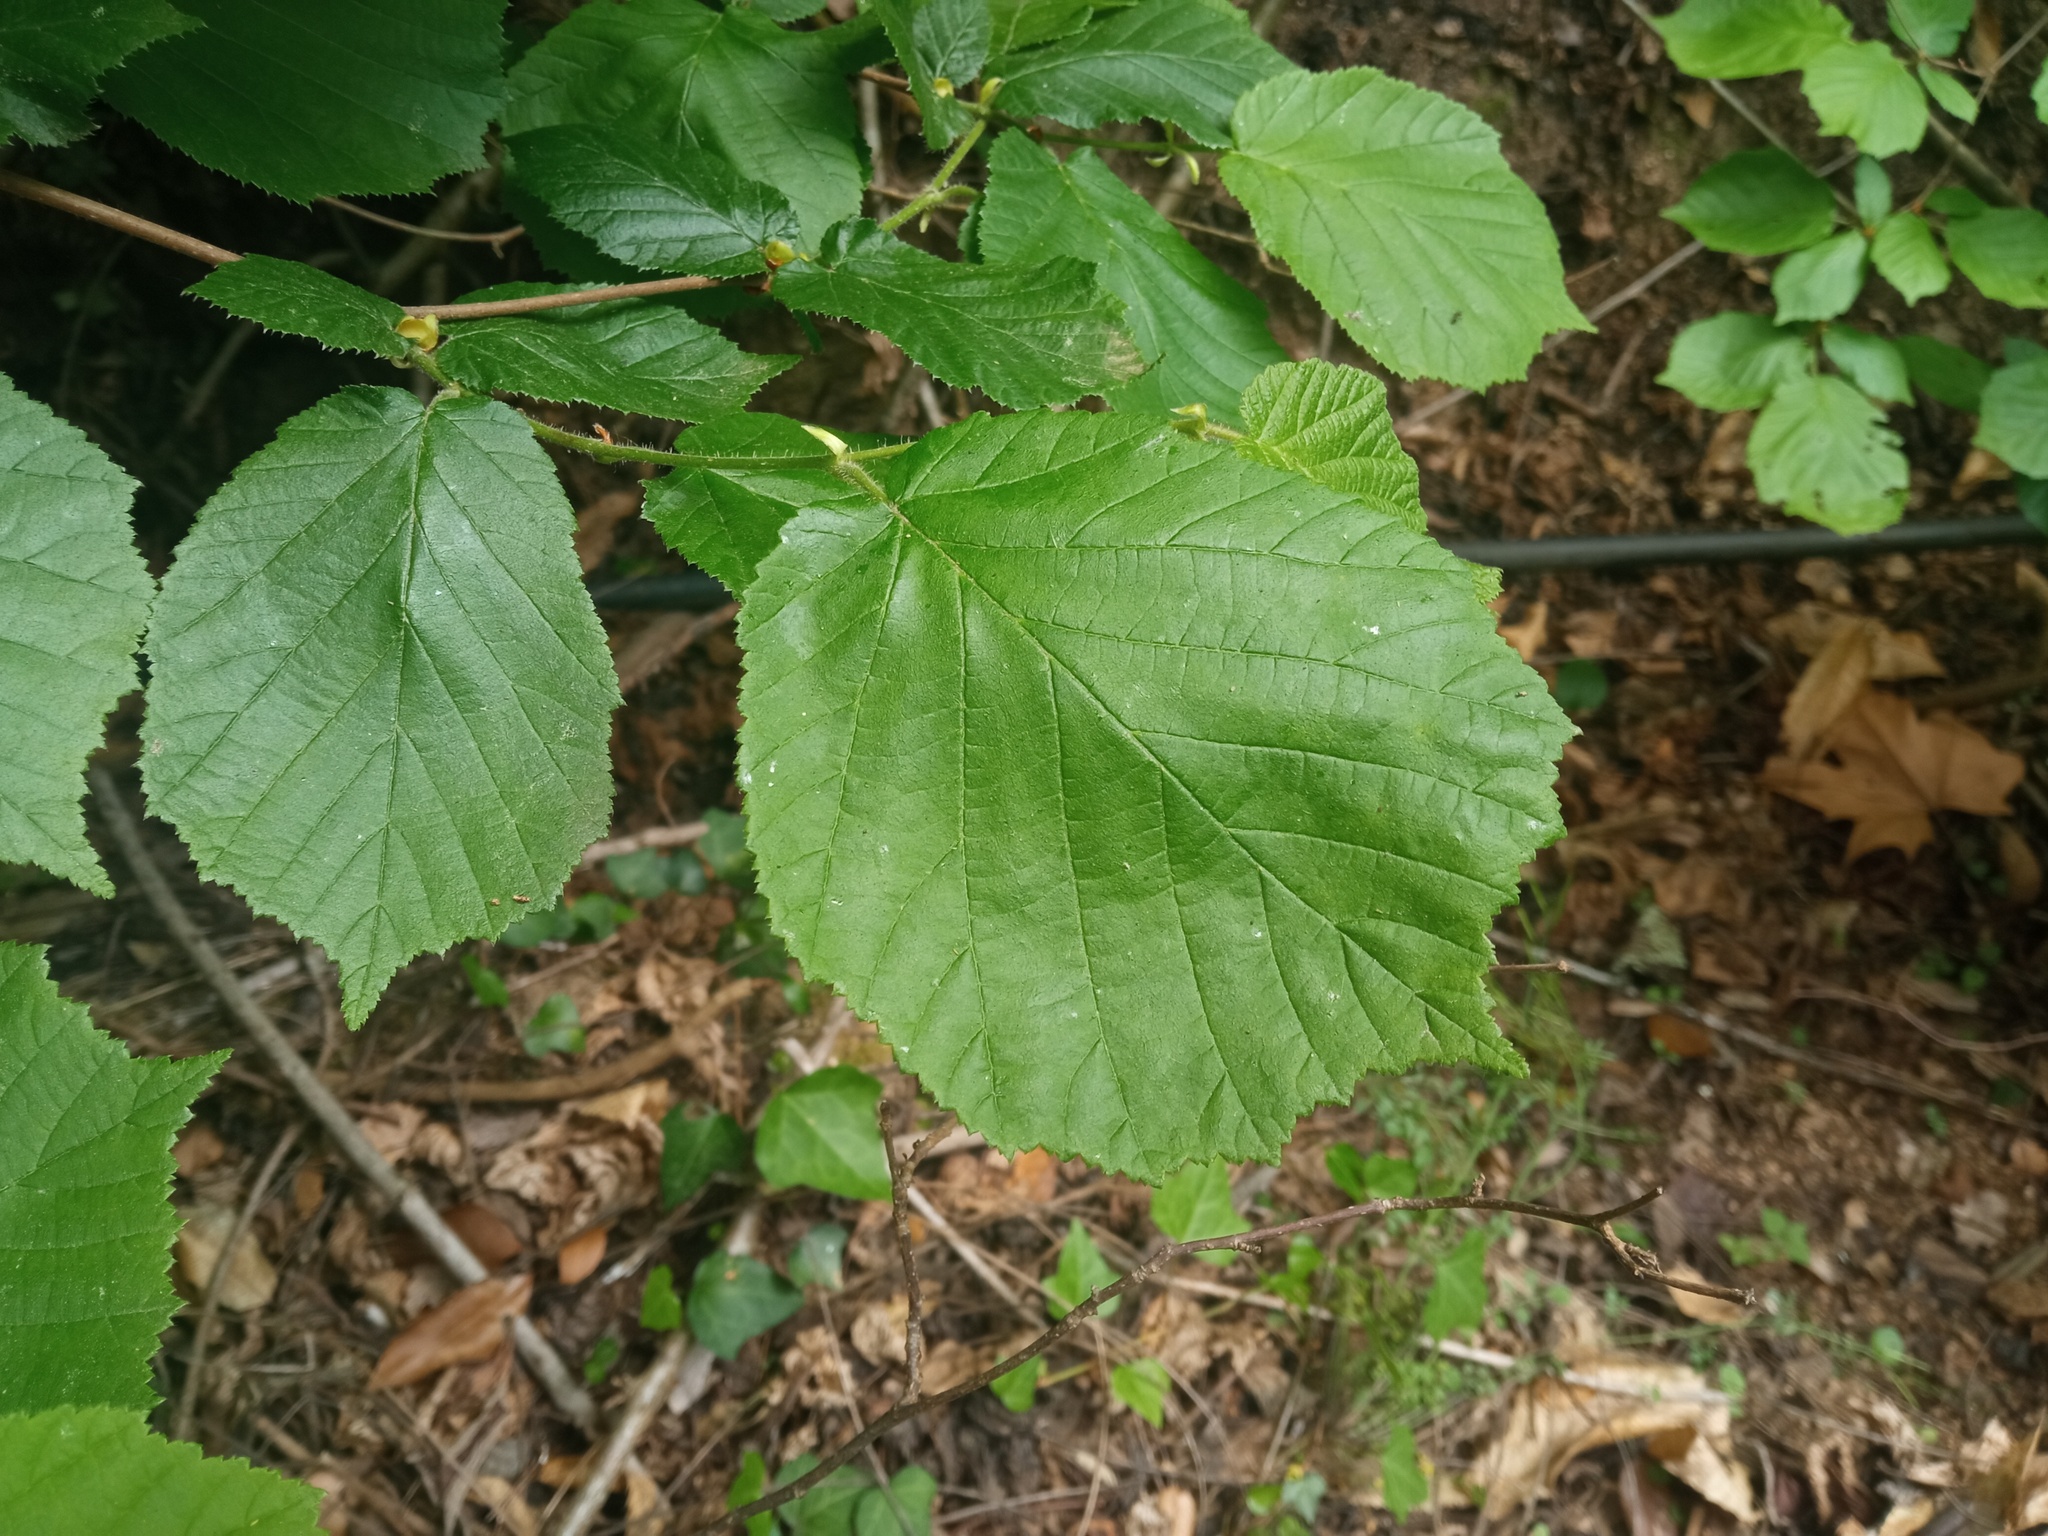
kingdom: Plantae
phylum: Tracheophyta
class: Magnoliopsida
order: Fagales
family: Betulaceae
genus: Corylus
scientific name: Corylus avellana
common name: European hazel
